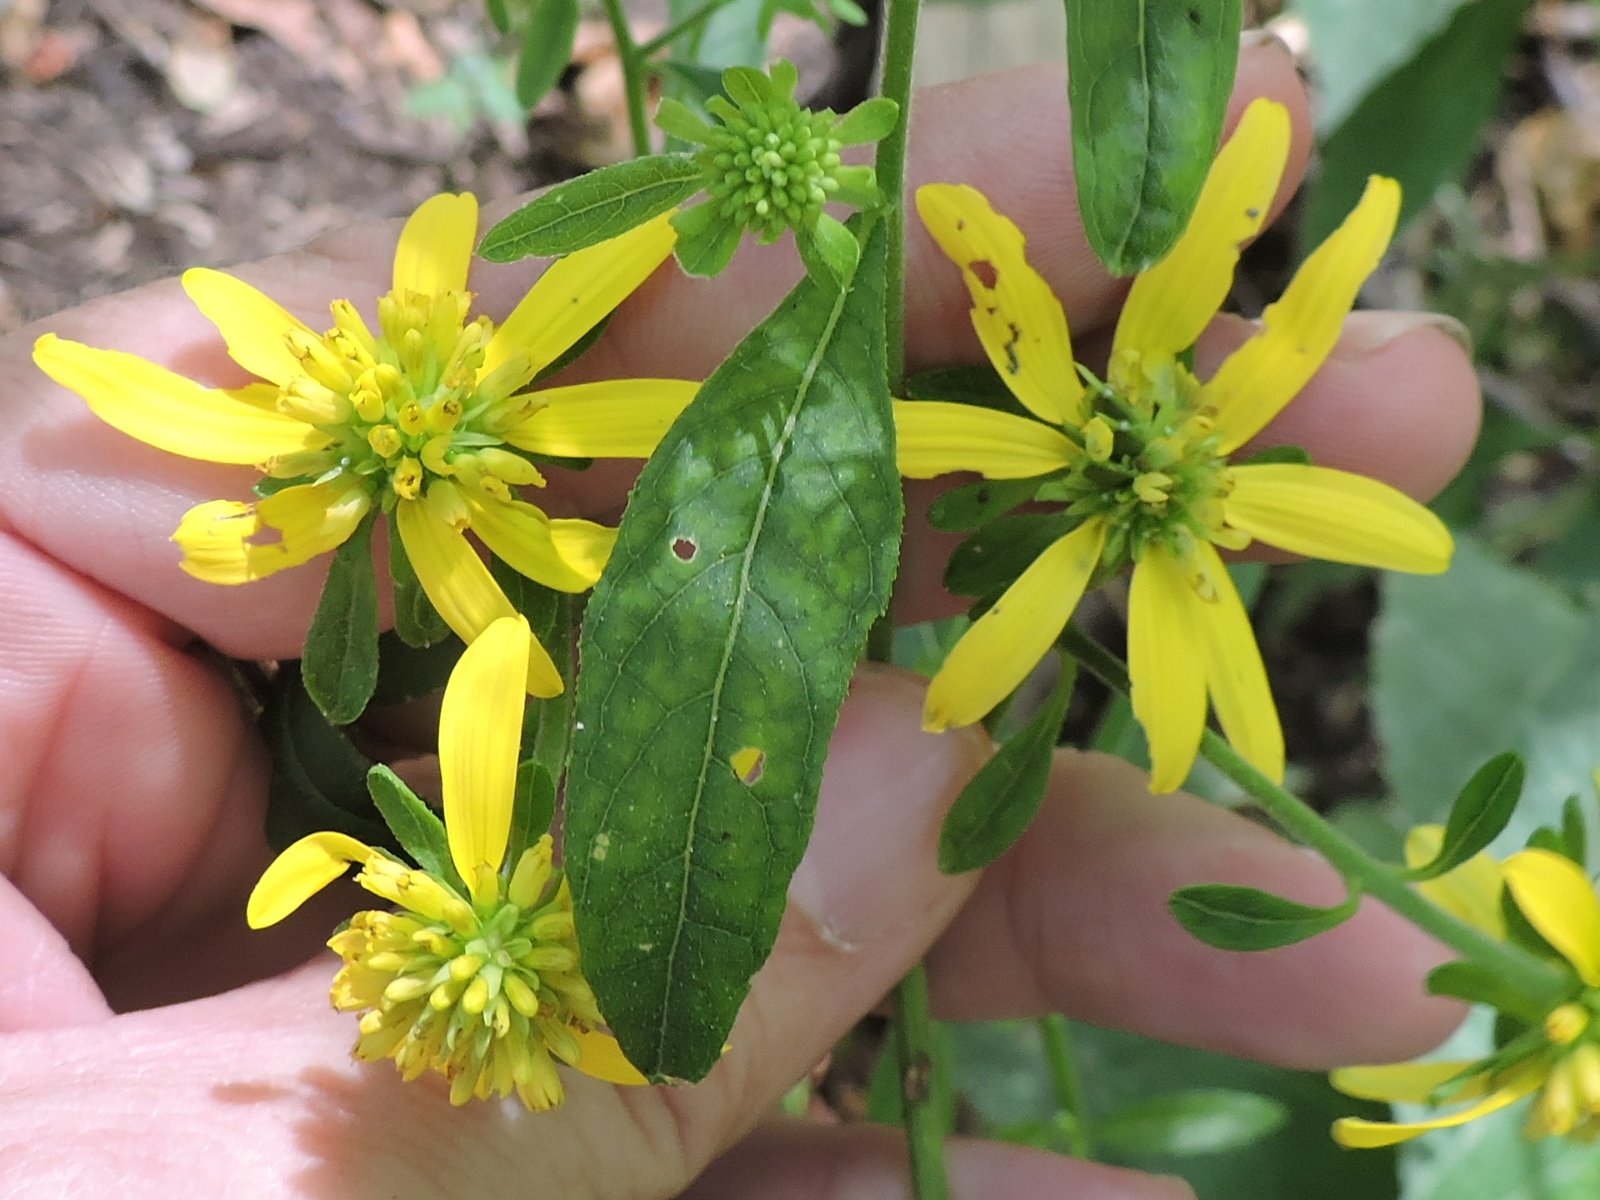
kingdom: Plantae
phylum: Tracheophyta
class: Magnoliopsida
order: Asterales
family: Asteraceae
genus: Verbesina
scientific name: Verbesina alternifolia
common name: Wingstem
